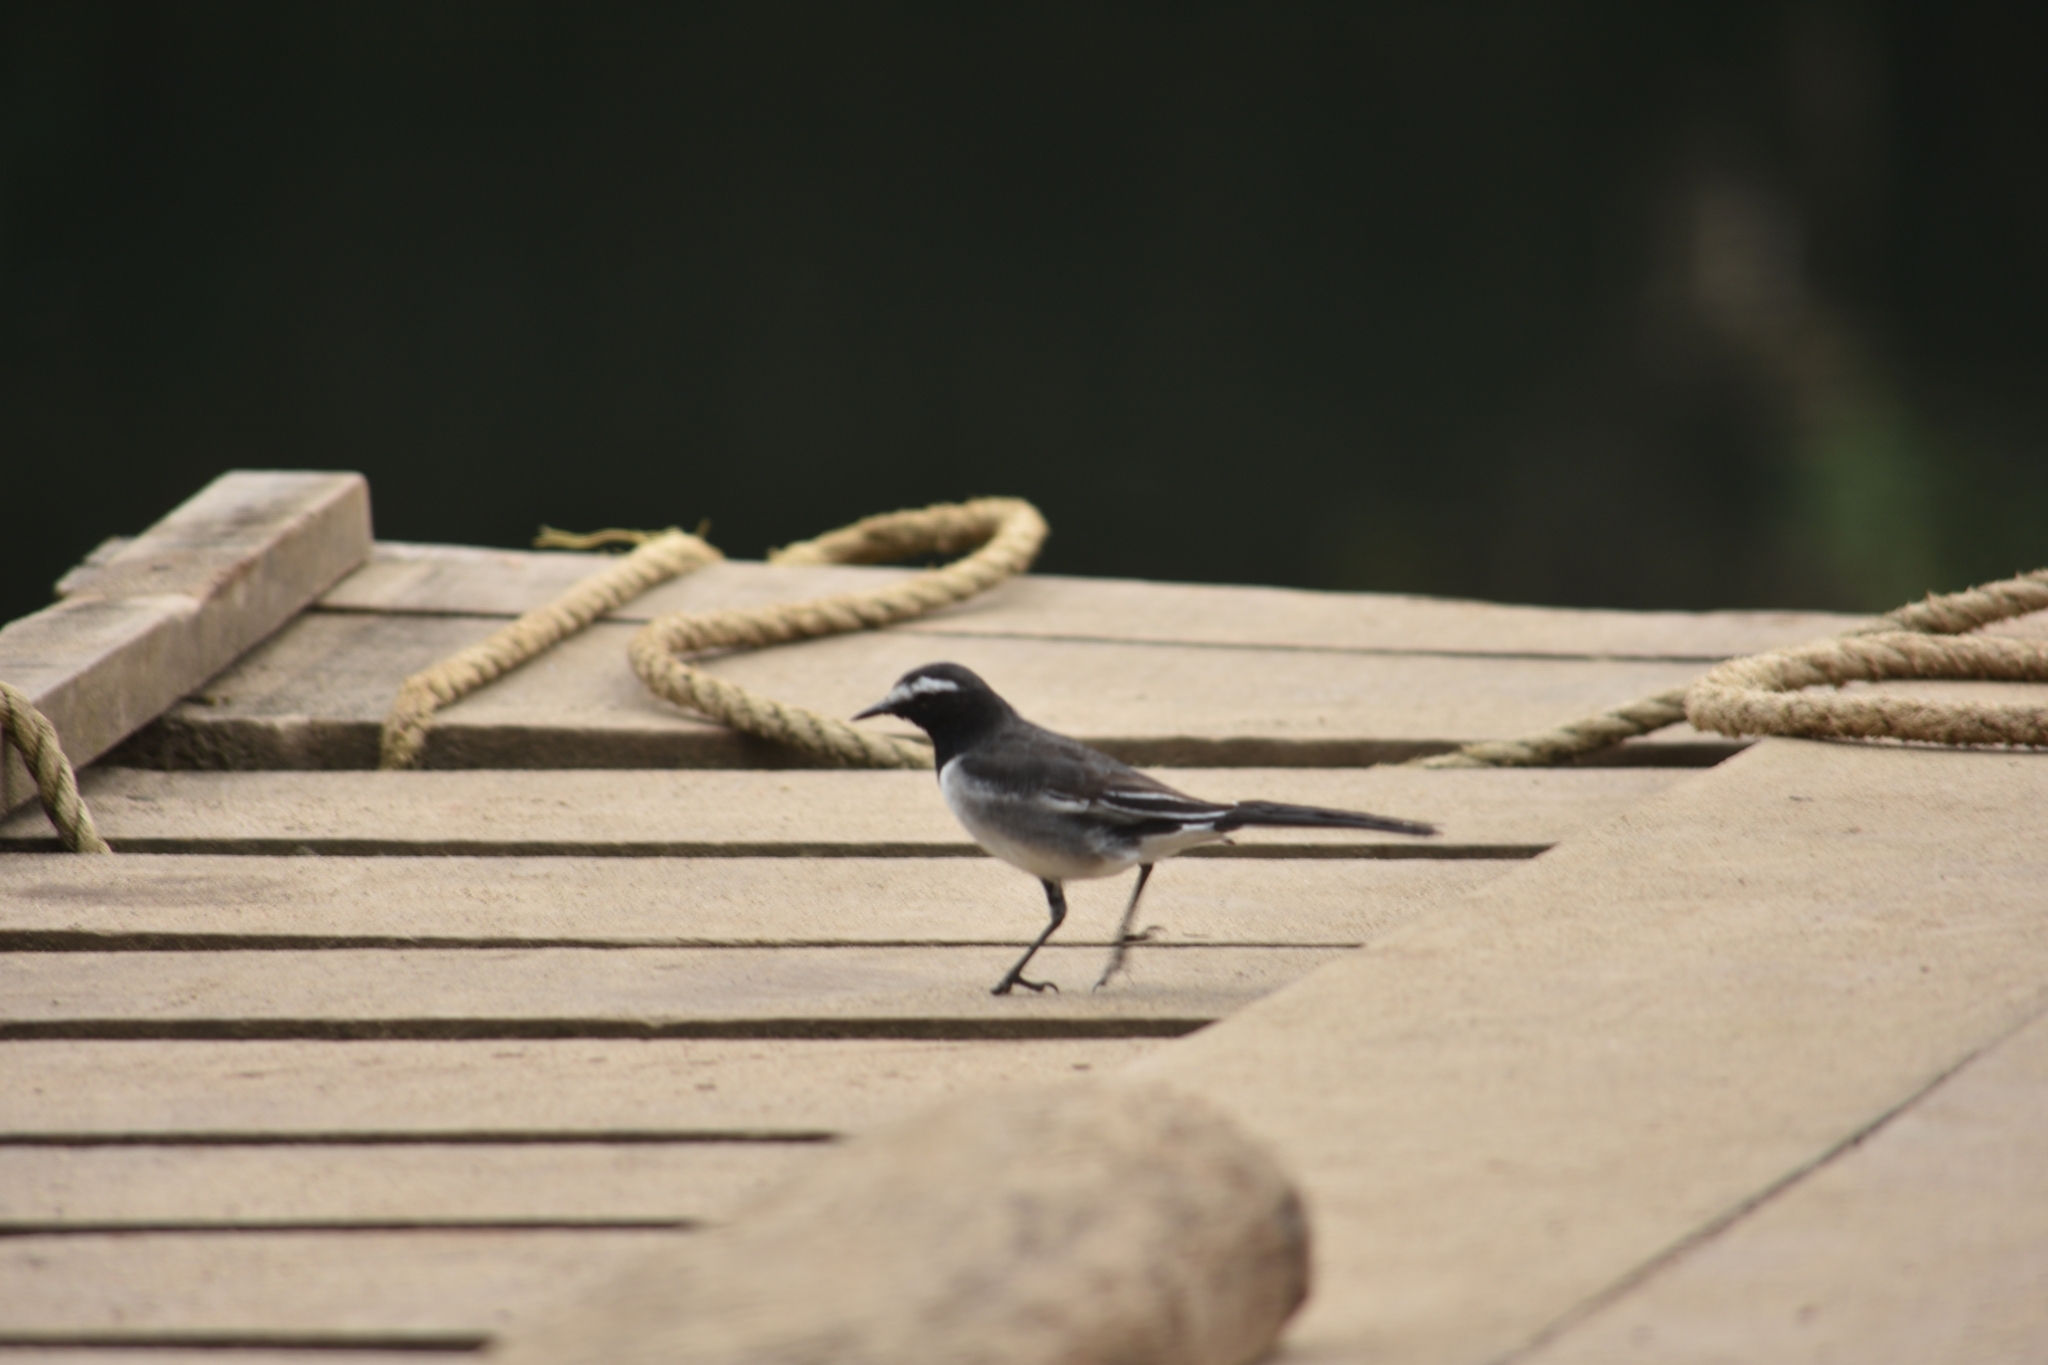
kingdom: Animalia
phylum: Chordata
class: Aves
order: Passeriformes
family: Motacillidae
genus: Motacilla
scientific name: Motacilla maderaspatensis
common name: White-browed wagtail
